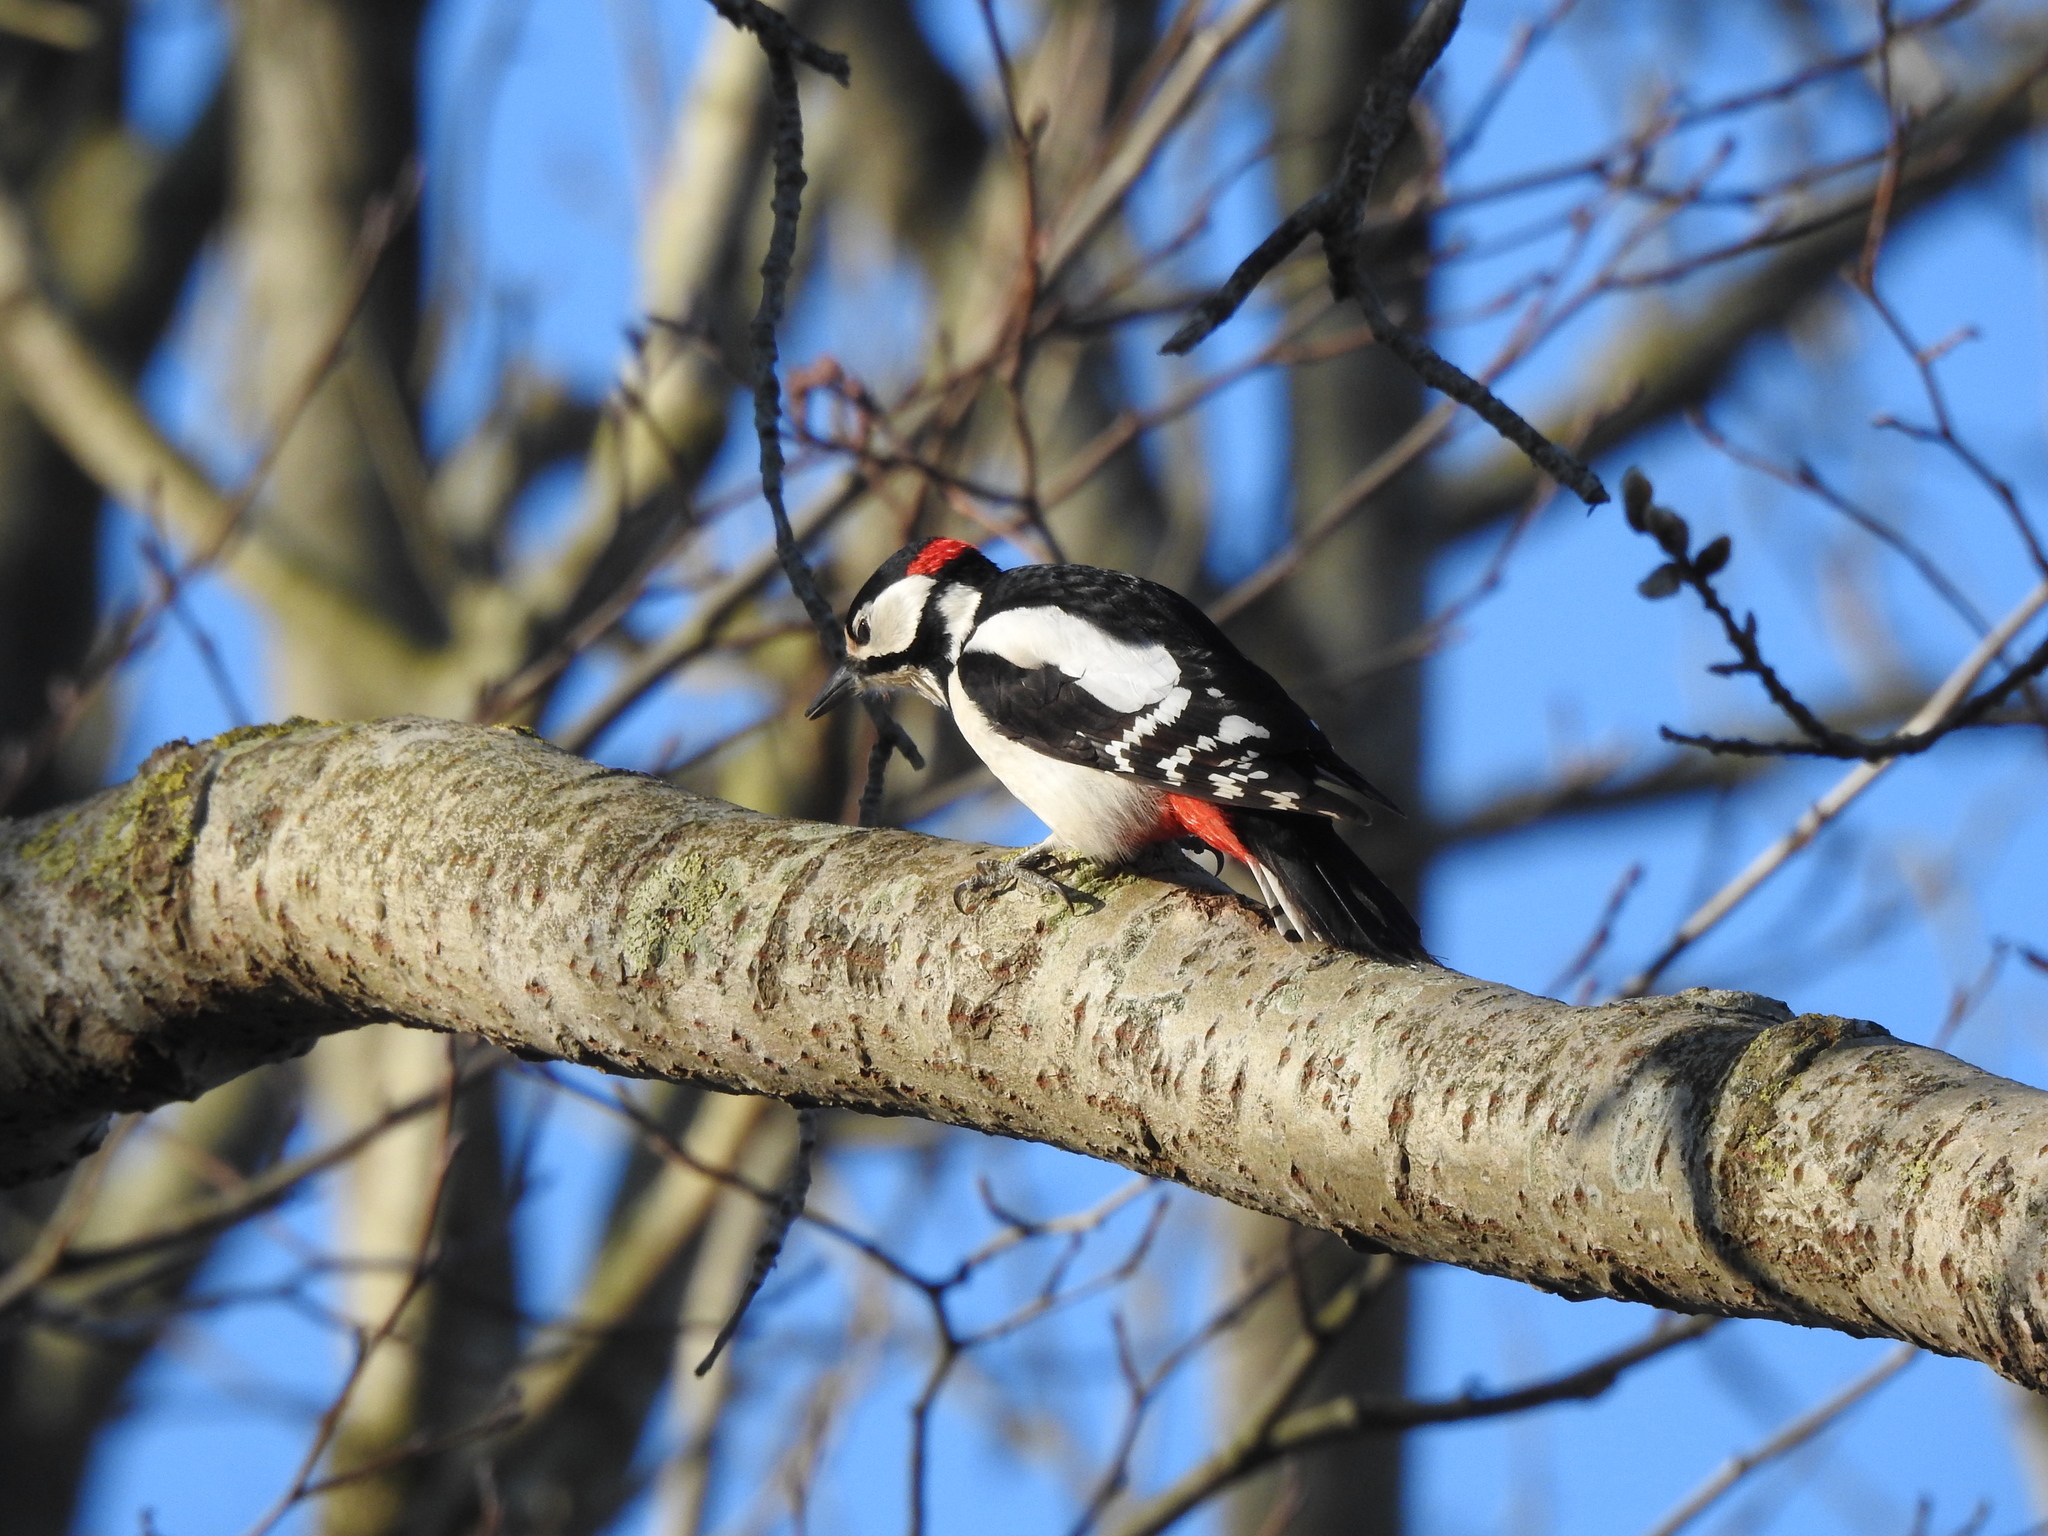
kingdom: Animalia
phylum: Chordata
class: Aves
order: Piciformes
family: Picidae
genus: Dendrocopos
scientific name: Dendrocopos major
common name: Great spotted woodpecker
